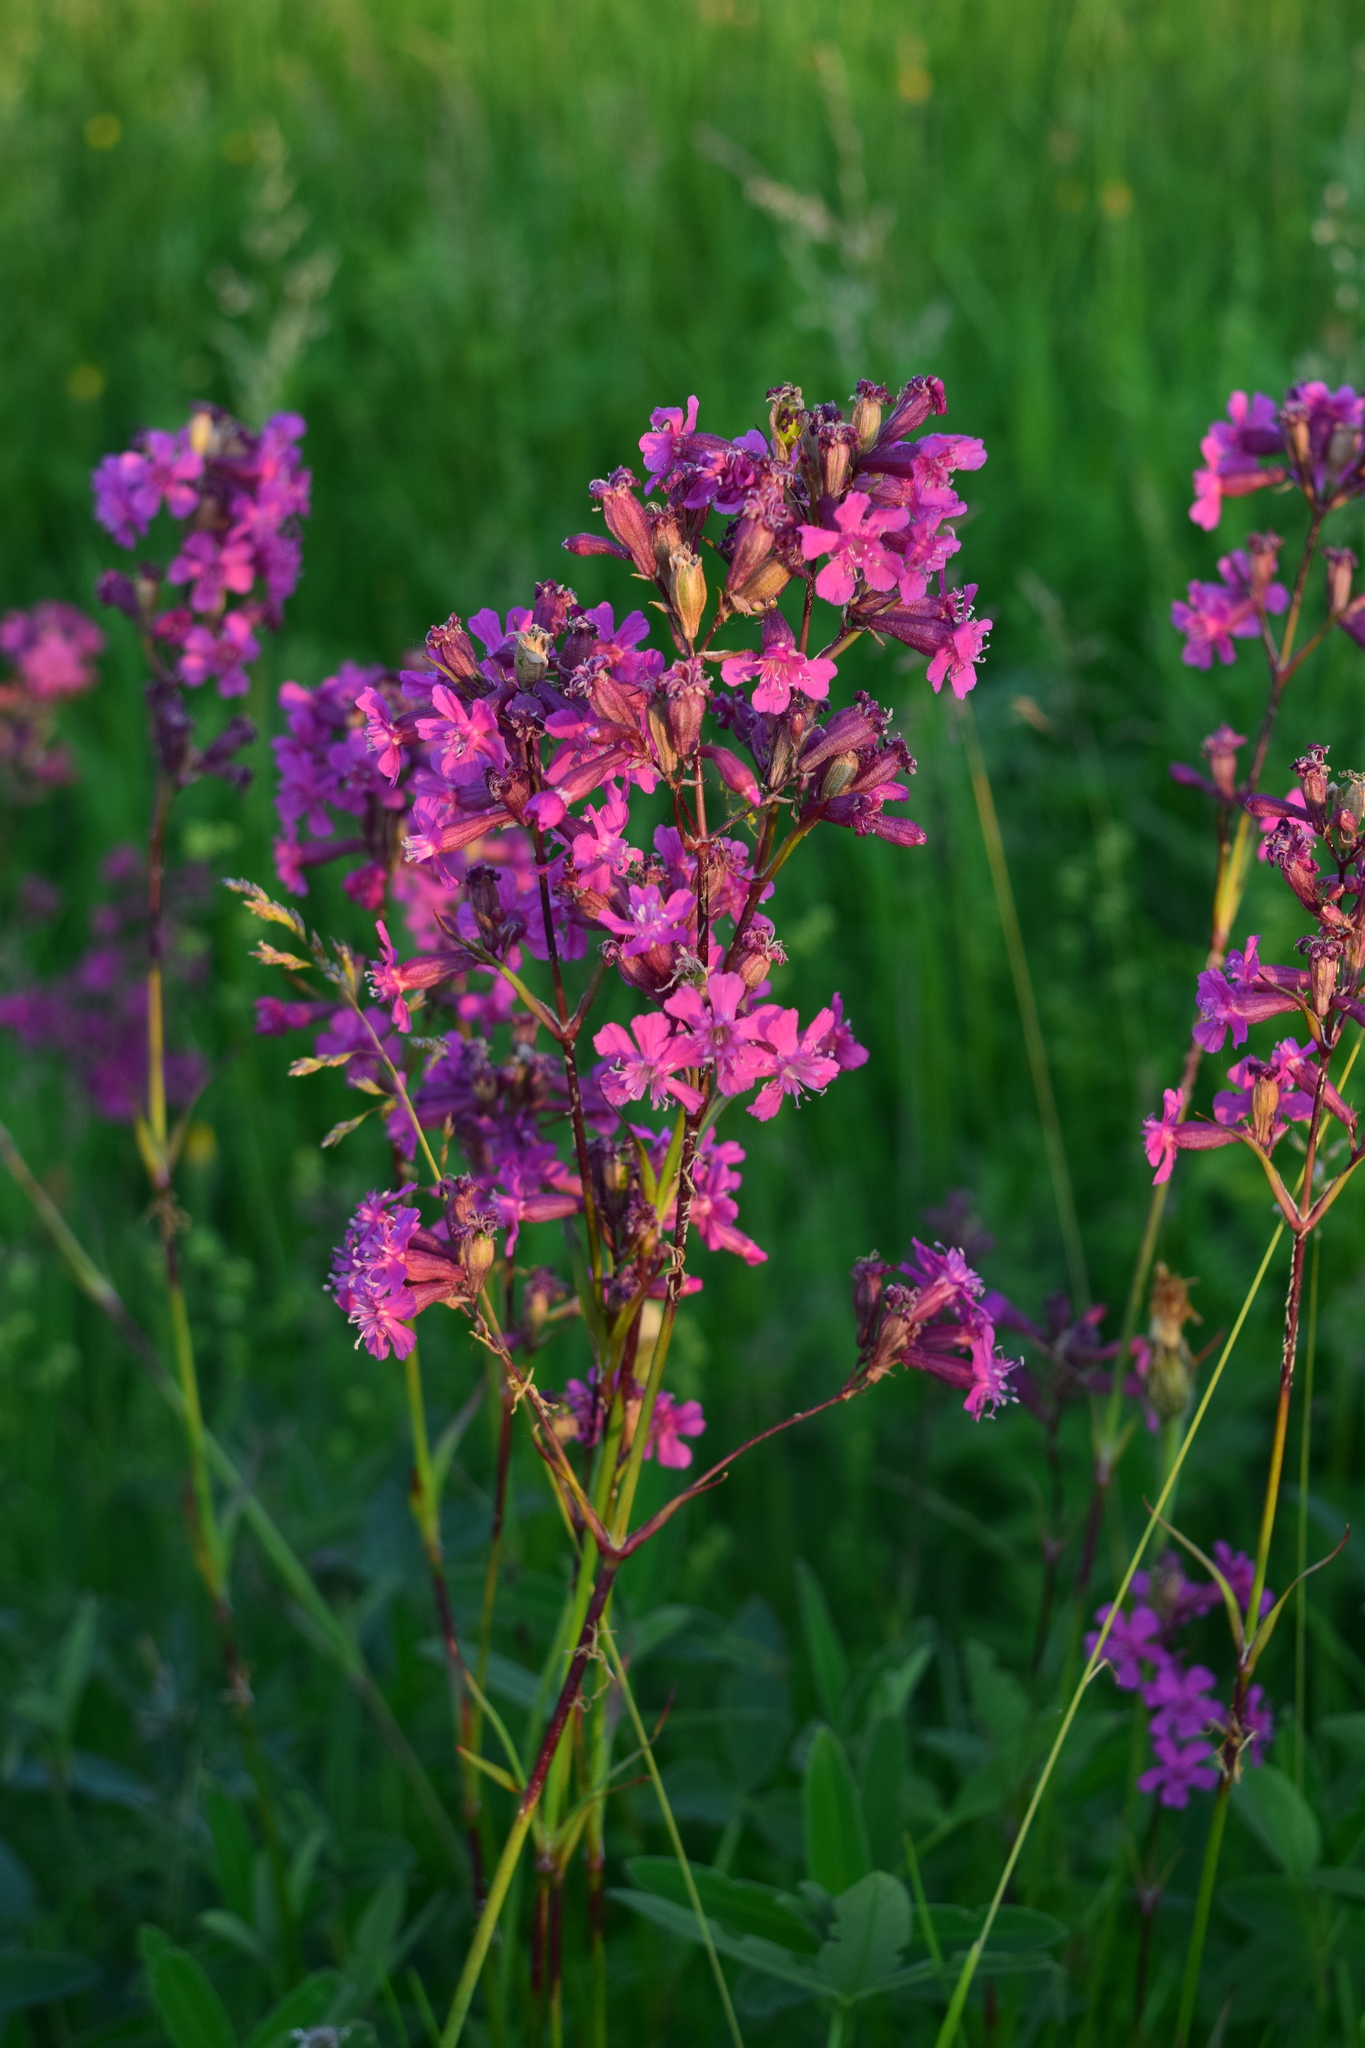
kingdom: Plantae
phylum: Tracheophyta
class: Magnoliopsida
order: Caryophyllales
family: Caryophyllaceae
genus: Viscaria
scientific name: Viscaria vulgaris
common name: Clammy campion
